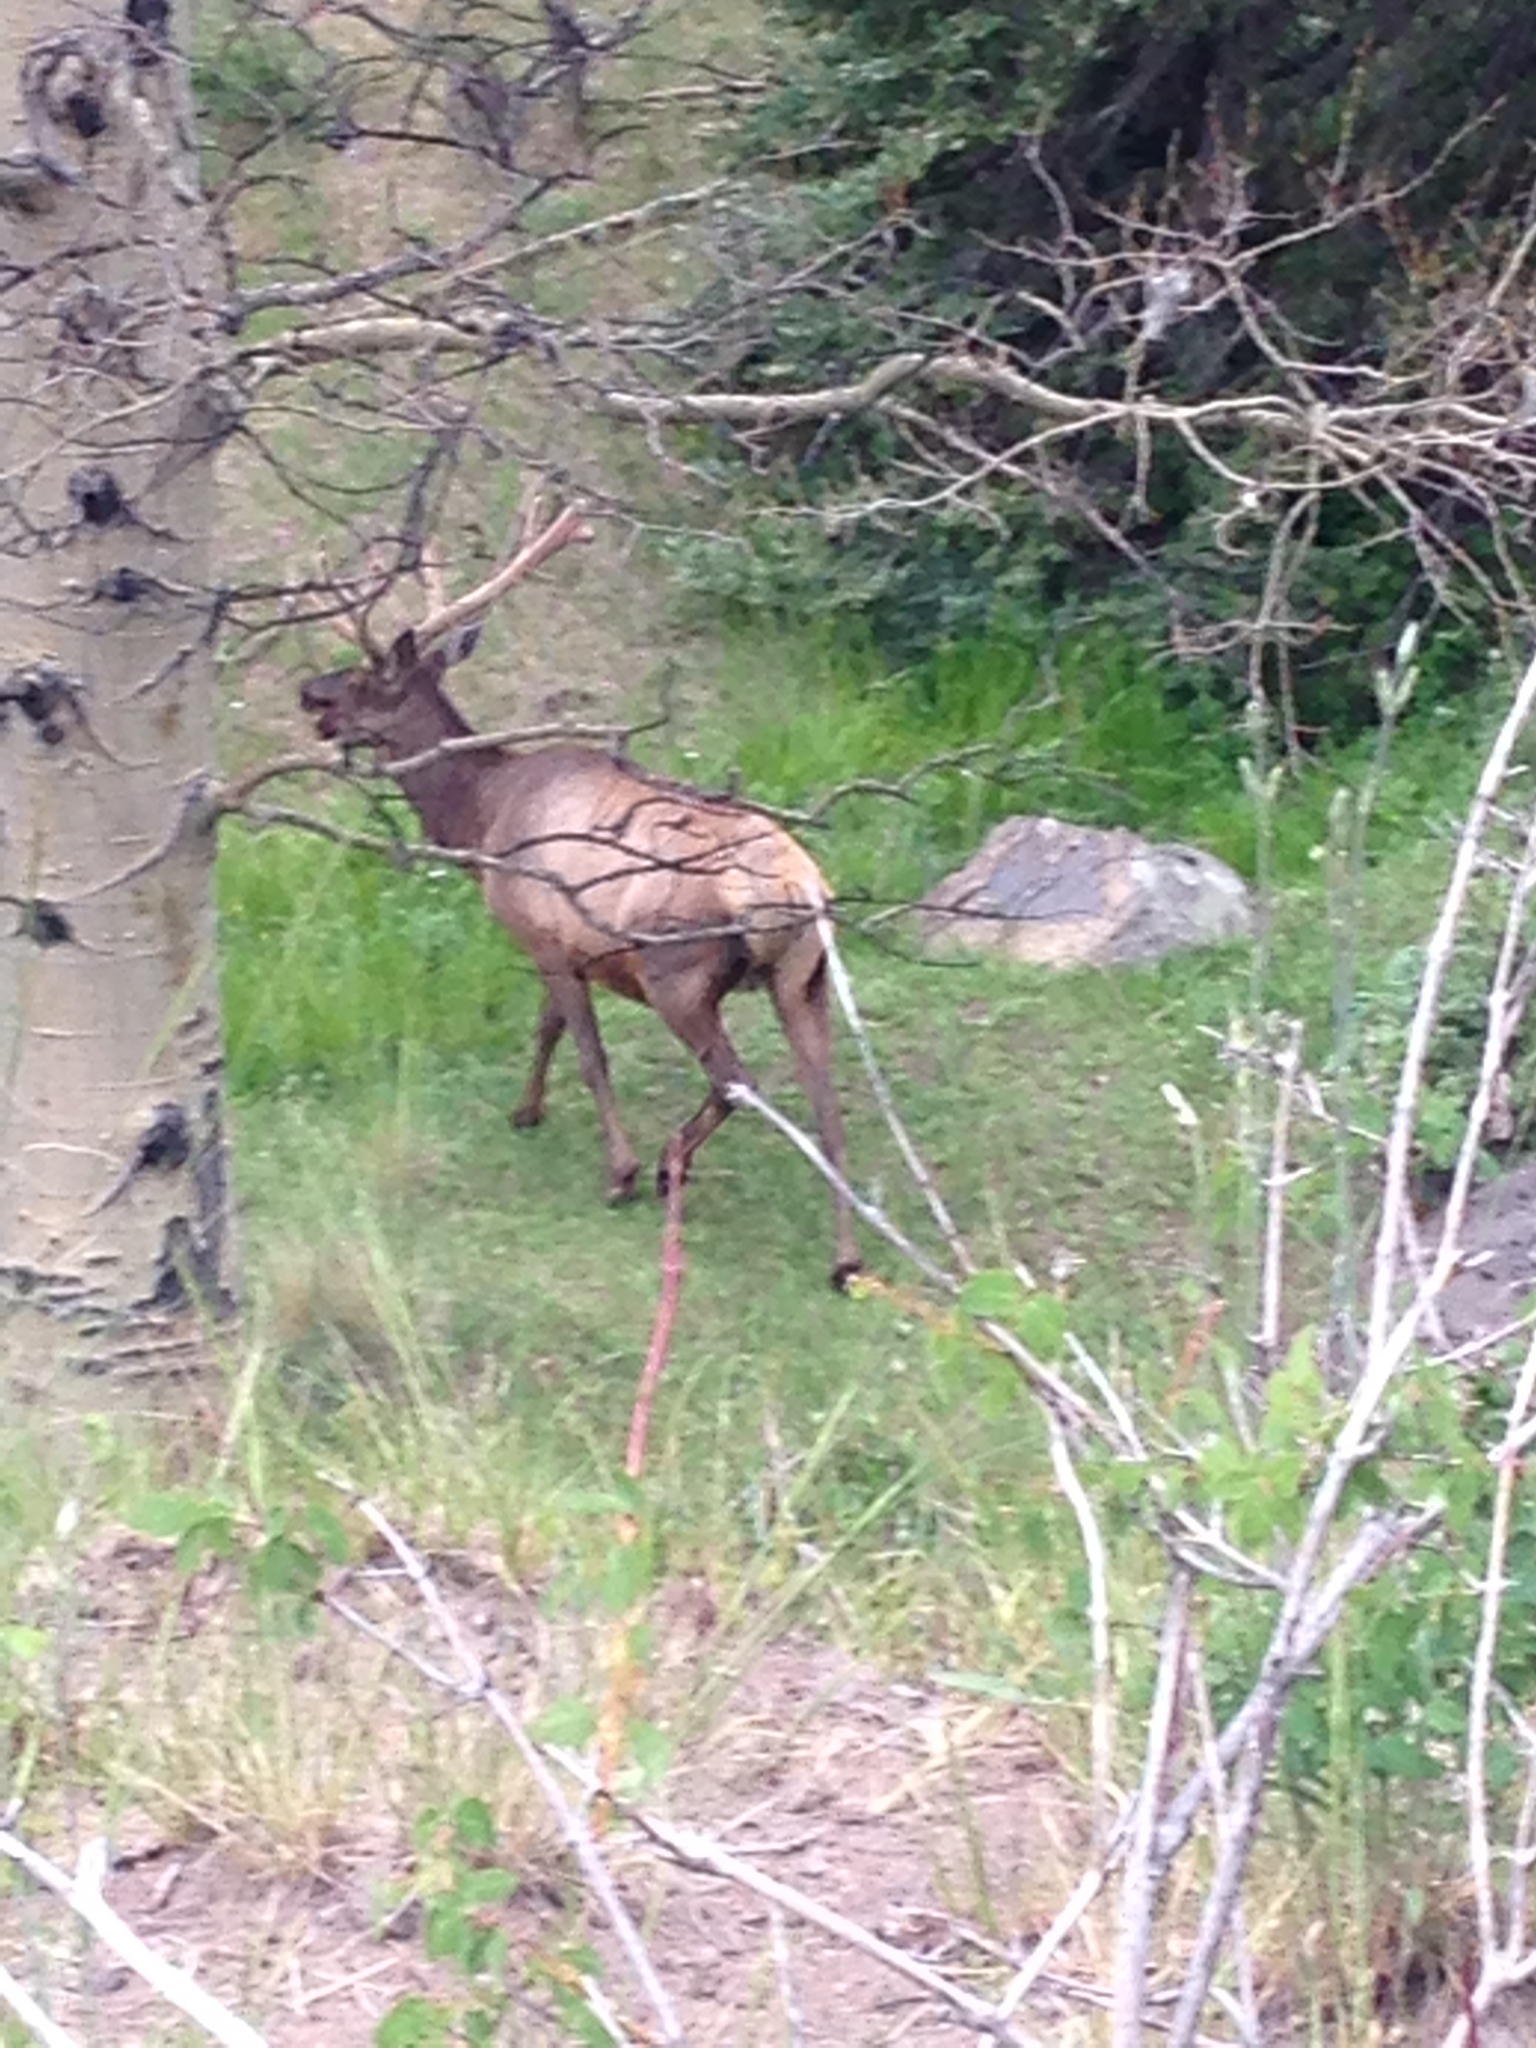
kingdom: Animalia
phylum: Chordata
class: Mammalia
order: Artiodactyla
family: Cervidae
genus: Cervus
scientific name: Cervus elaphus
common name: Red deer
